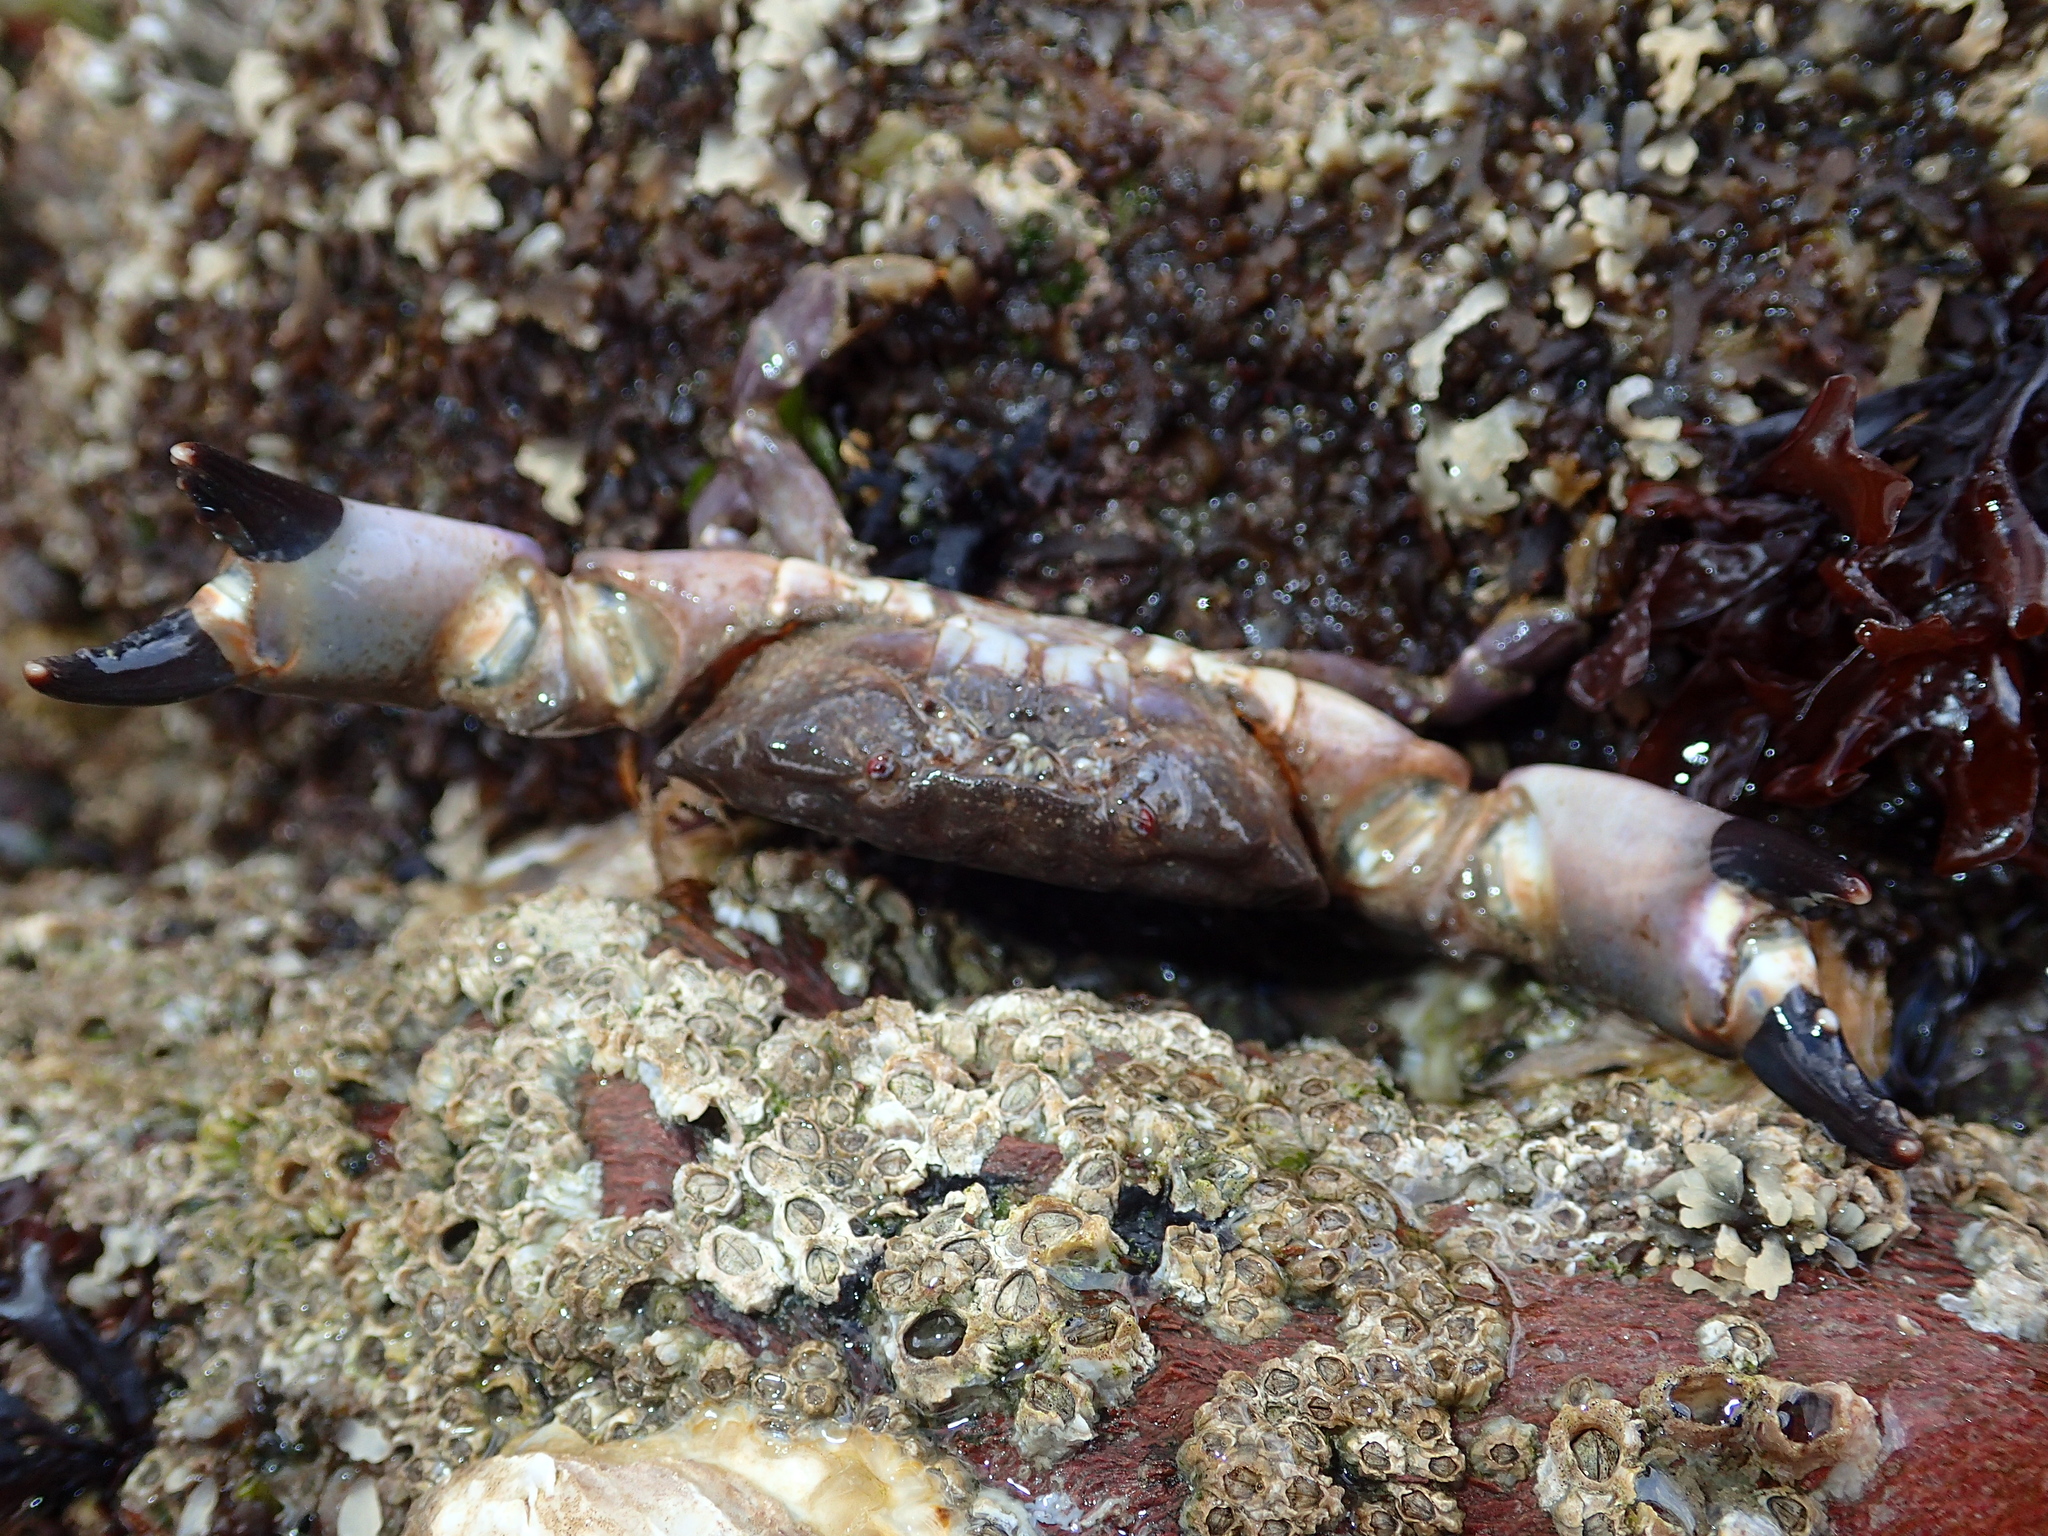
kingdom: Animalia
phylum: Arthropoda
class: Malacostraca
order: Decapoda
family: Xanthidae
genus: Xantho
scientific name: Xantho hydrophilus
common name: Montagu's crab
